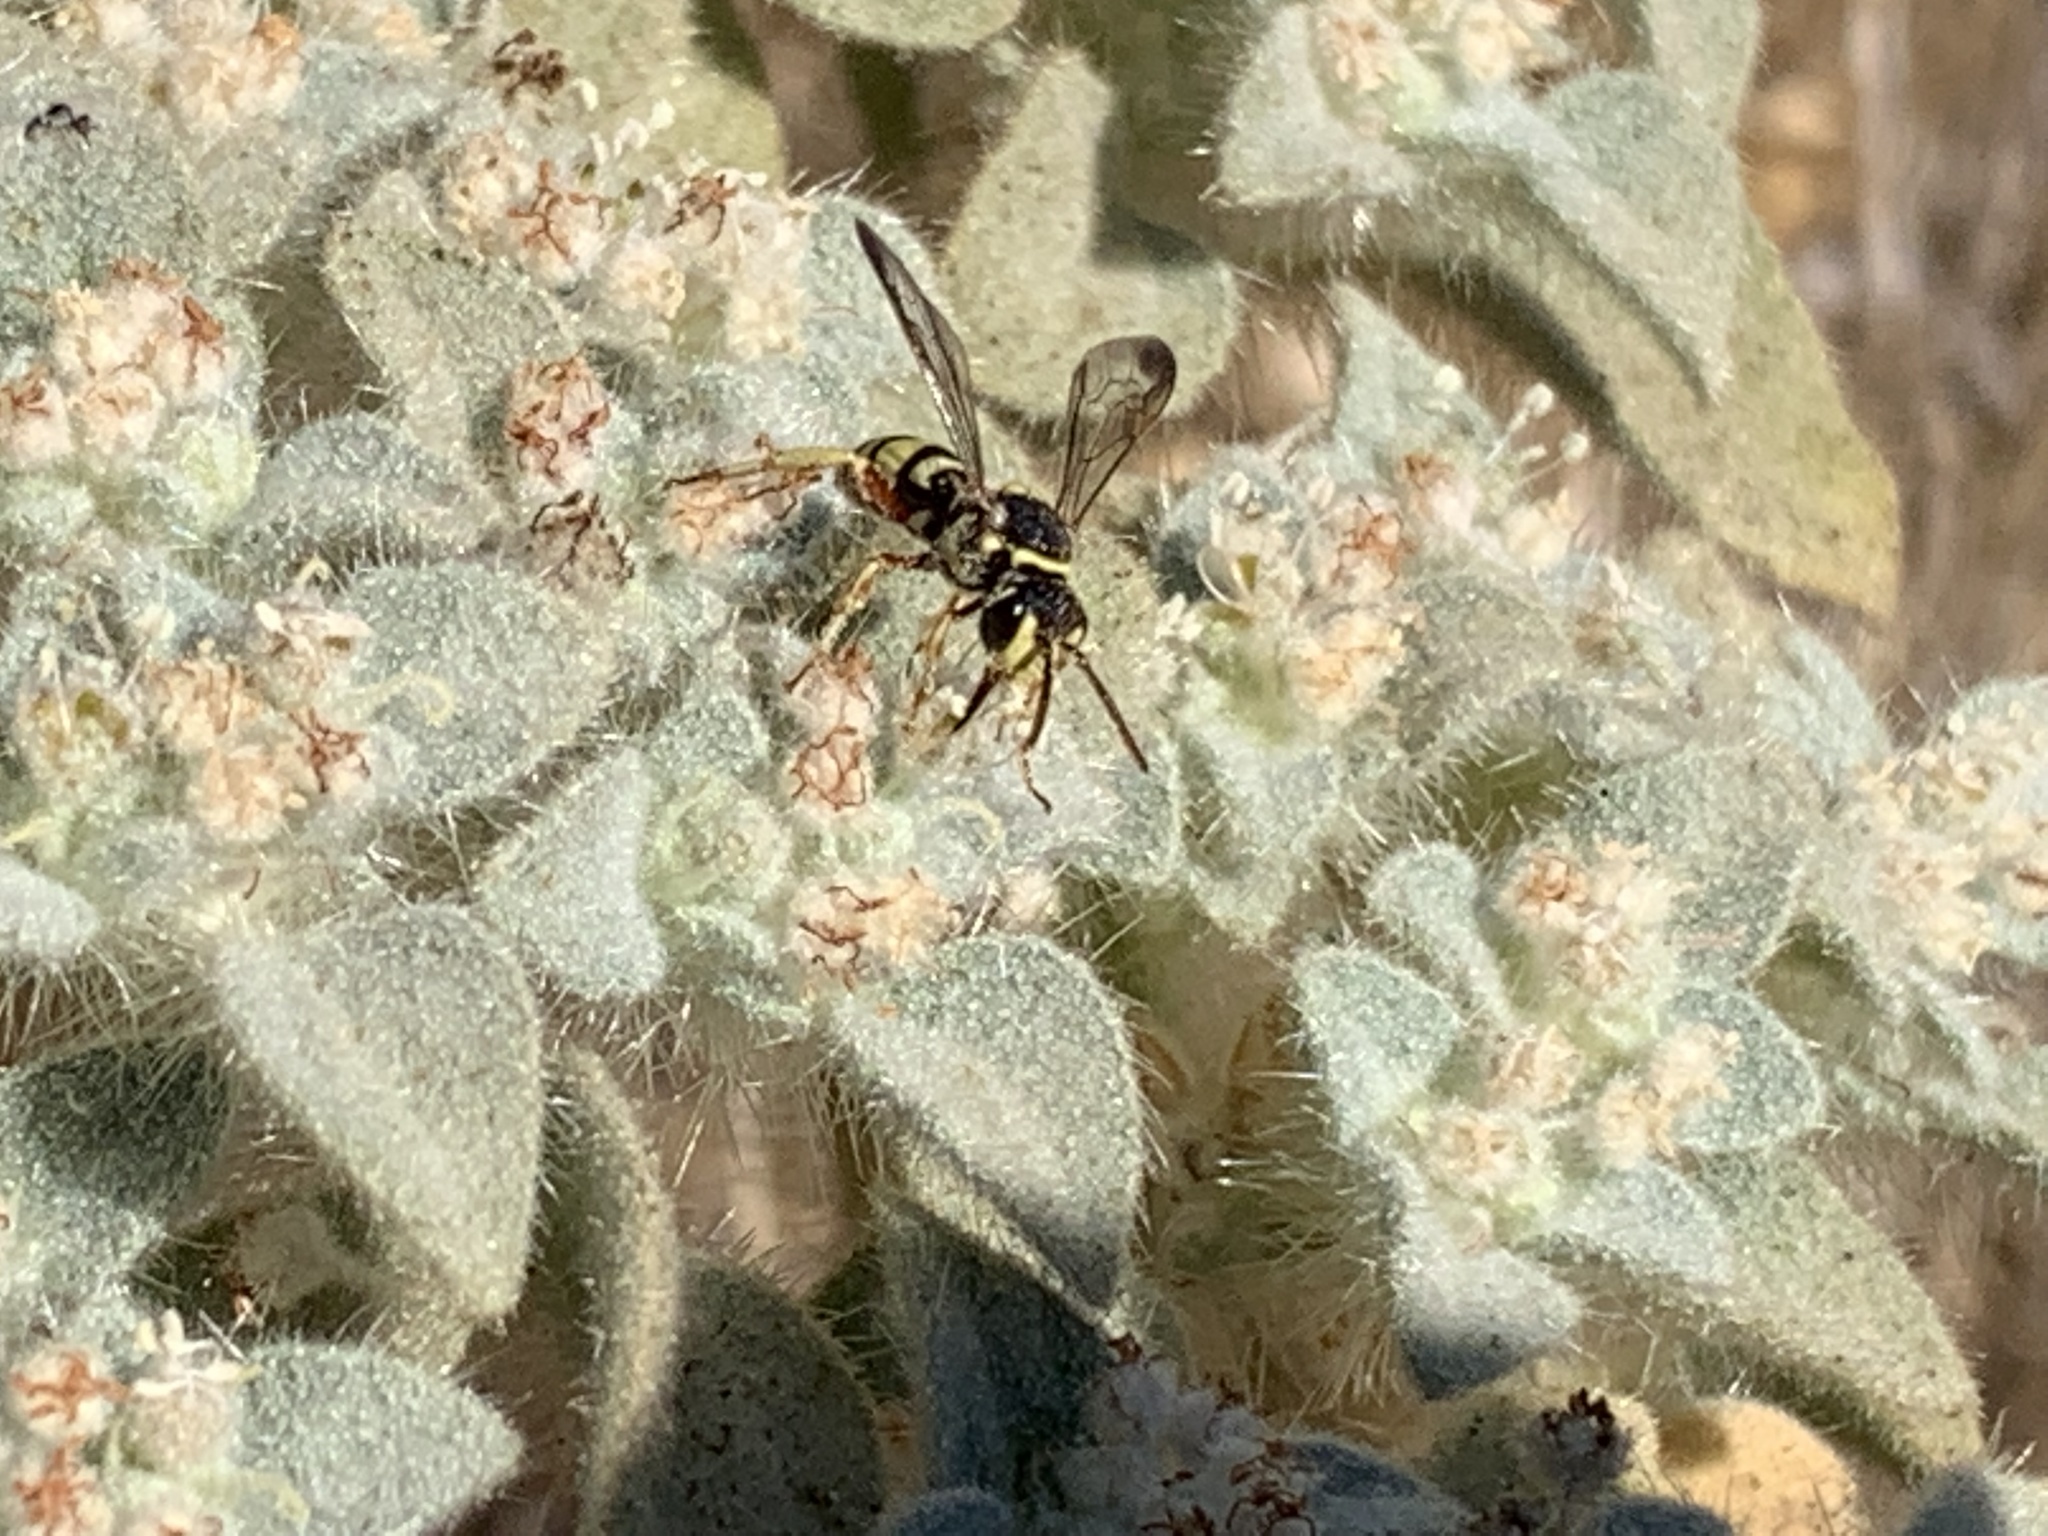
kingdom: Animalia
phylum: Arthropoda
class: Insecta
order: Hymenoptera
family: Apidae
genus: Nomada
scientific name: Nomada
